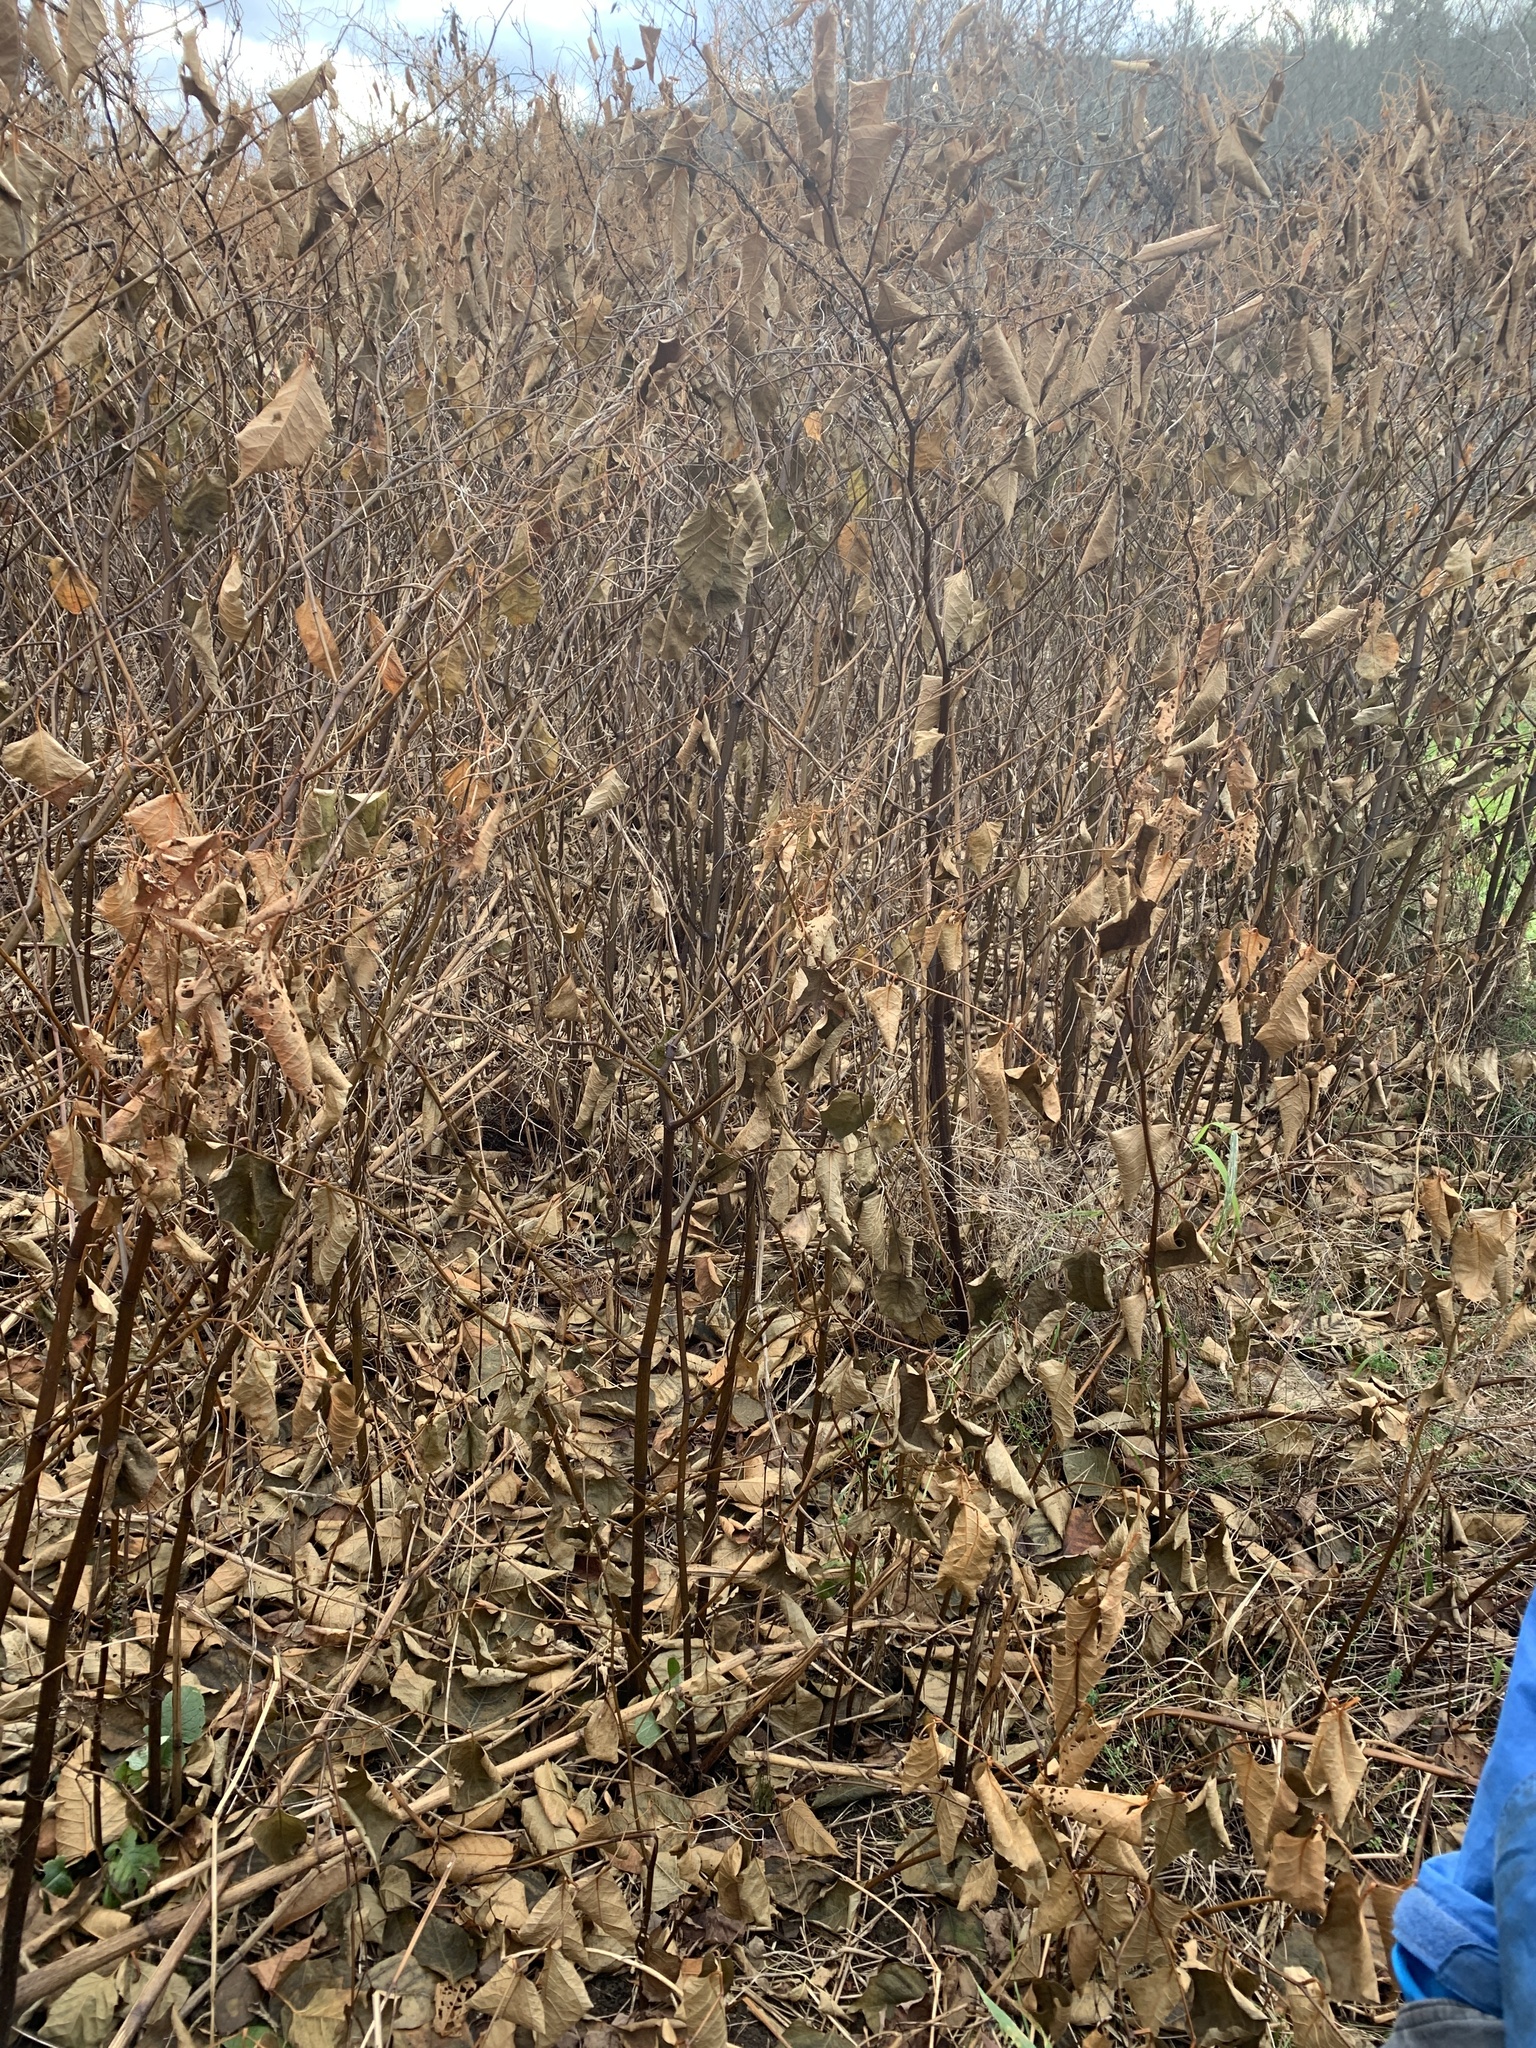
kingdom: Plantae
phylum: Tracheophyta
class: Magnoliopsida
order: Caryophyllales
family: Polygonaceae
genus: Reynoutria
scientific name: Reynoutria japonica
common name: Japanese knotweed
